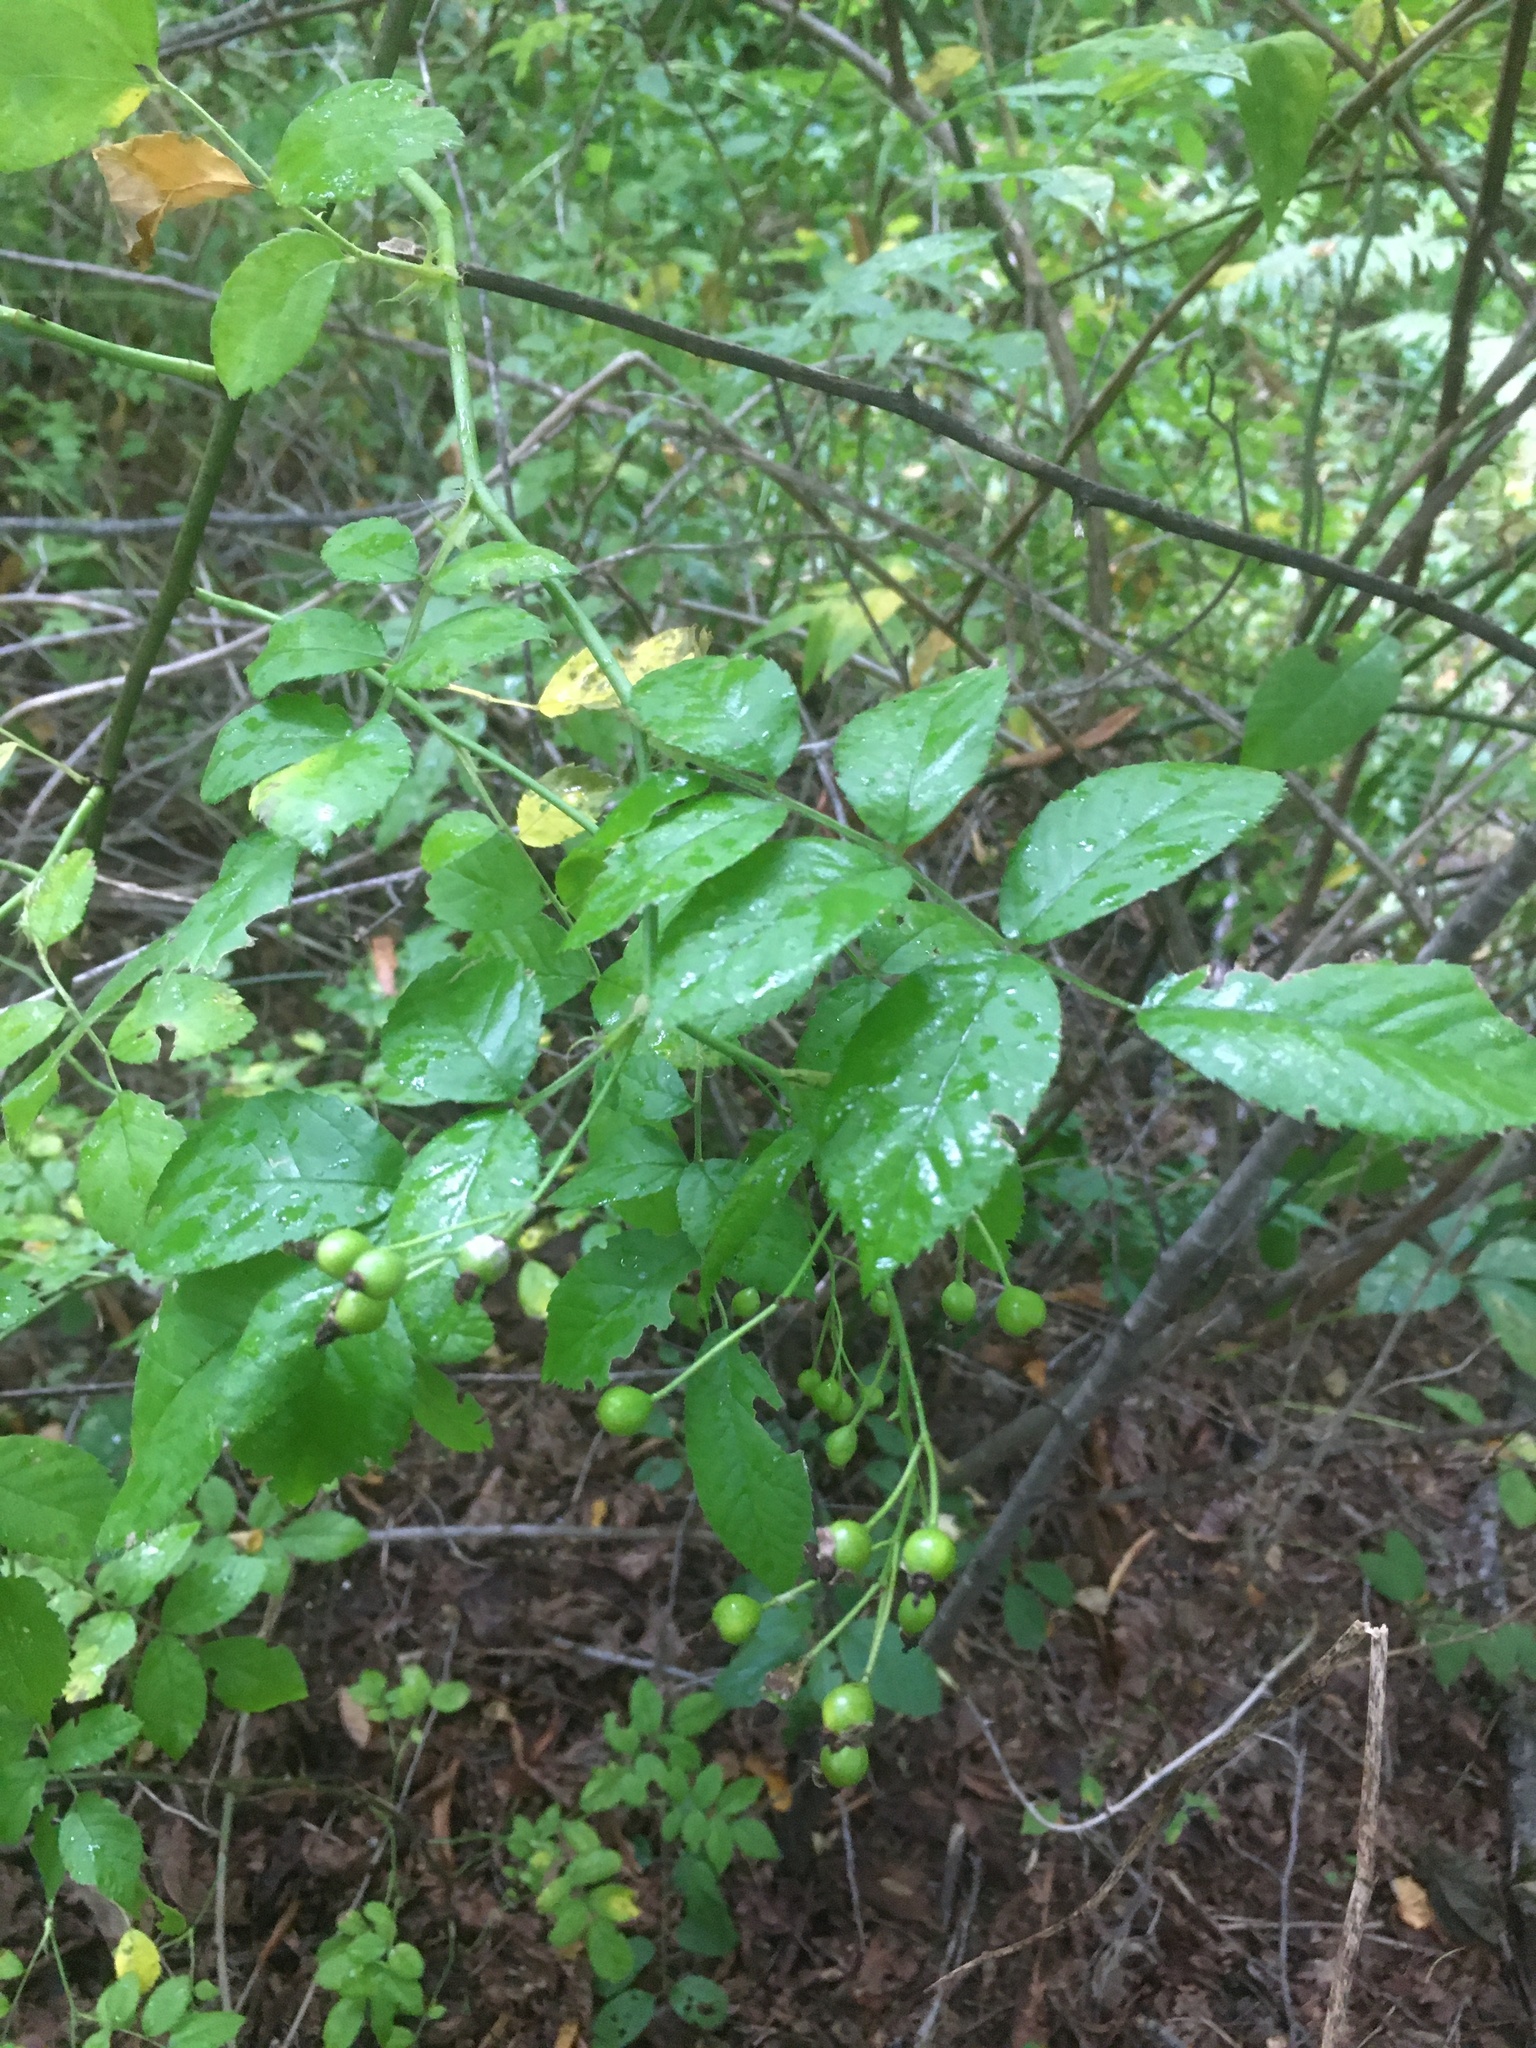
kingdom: Plantae
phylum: Tracheophyta
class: Magnoliopsida
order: Rosales
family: Rosaceae
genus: Rosa
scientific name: Rosa multiflora
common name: Multiflora rose
